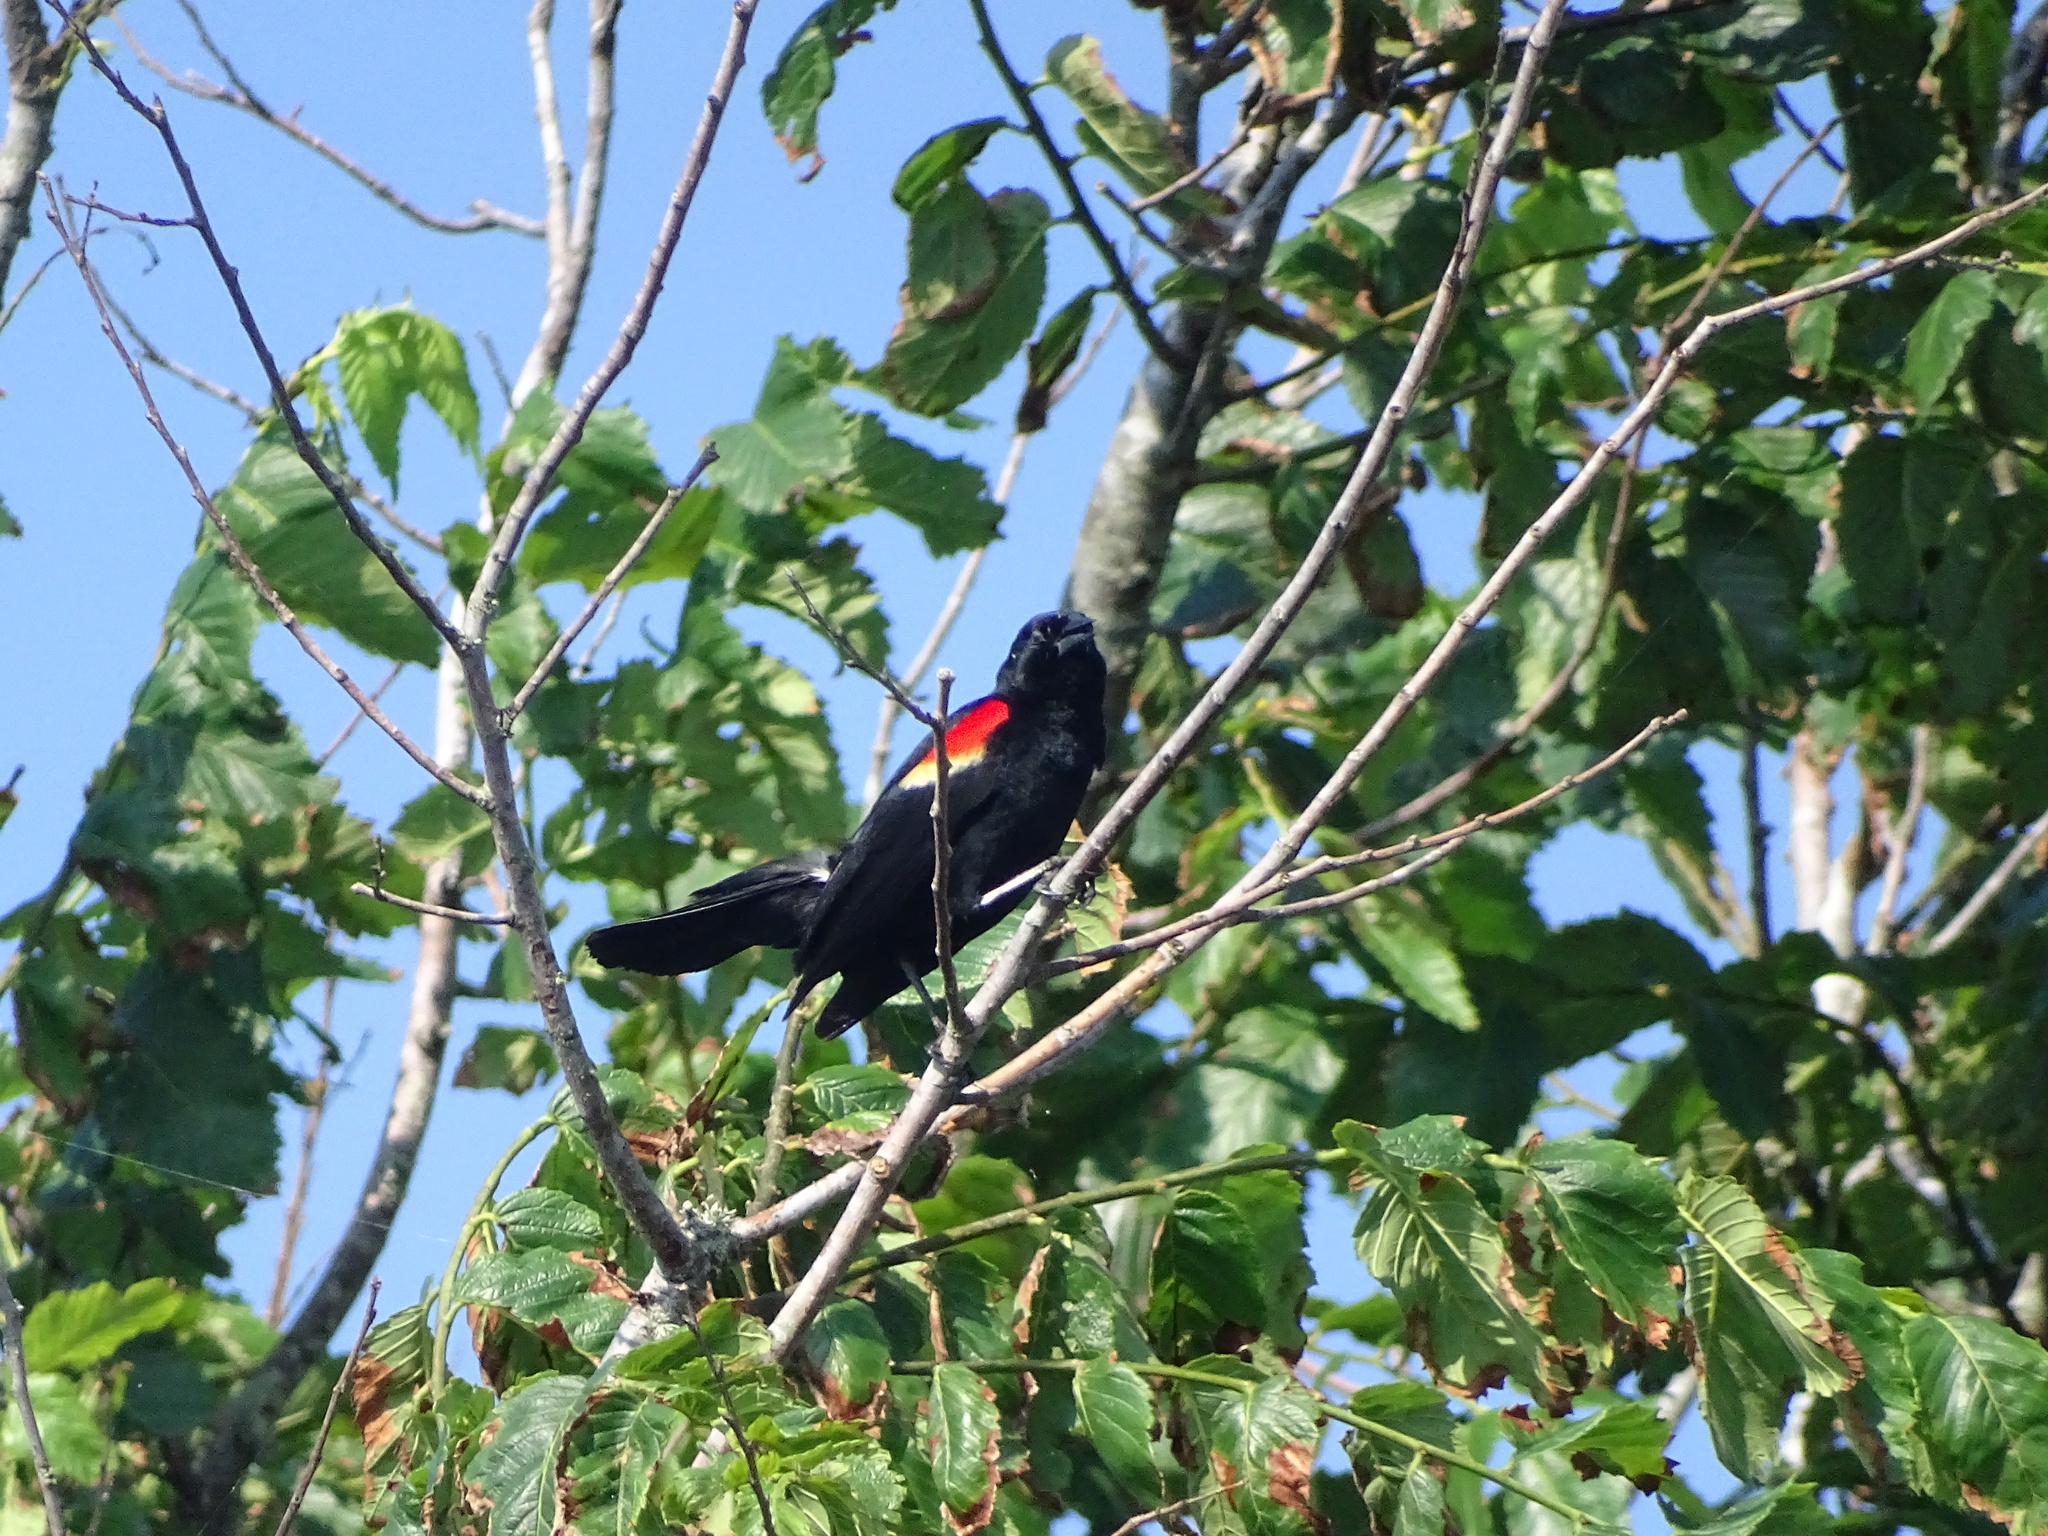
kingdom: Animalia
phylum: Chordata
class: Aves
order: Passeriformes
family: Icteridae
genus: Agelaius
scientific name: Agelaius phoeniceus
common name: Red-winged blackbird
